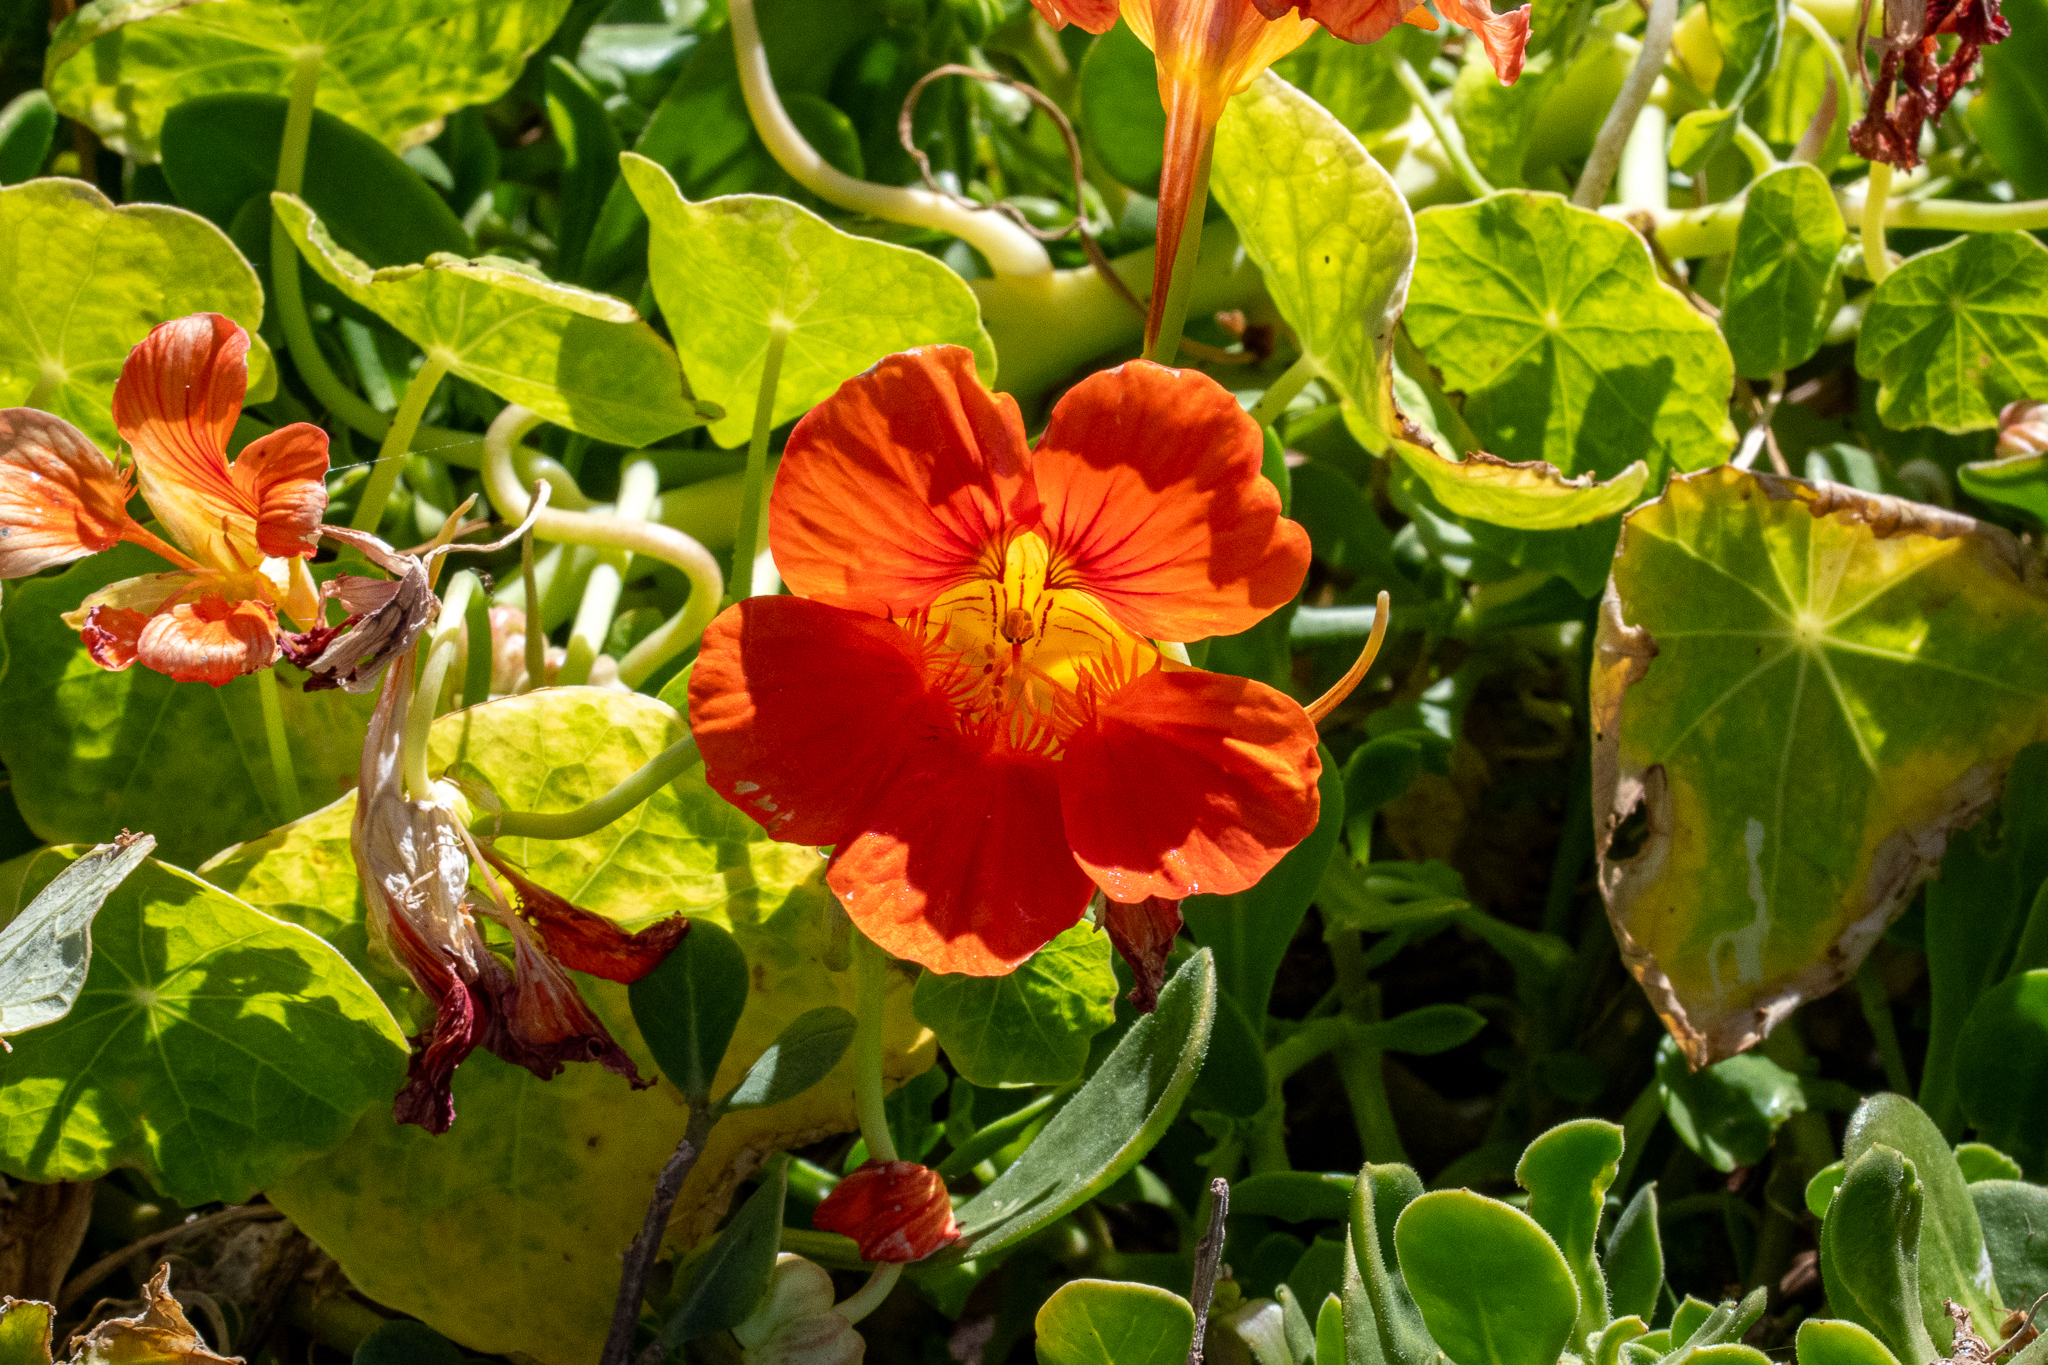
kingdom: Plantae
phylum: Tracheophyta
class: Magnoliopsida
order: Brassicales
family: Tropaeolaceae
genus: Tropaeolum
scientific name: Tropaeolum majus
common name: Nasturtium
